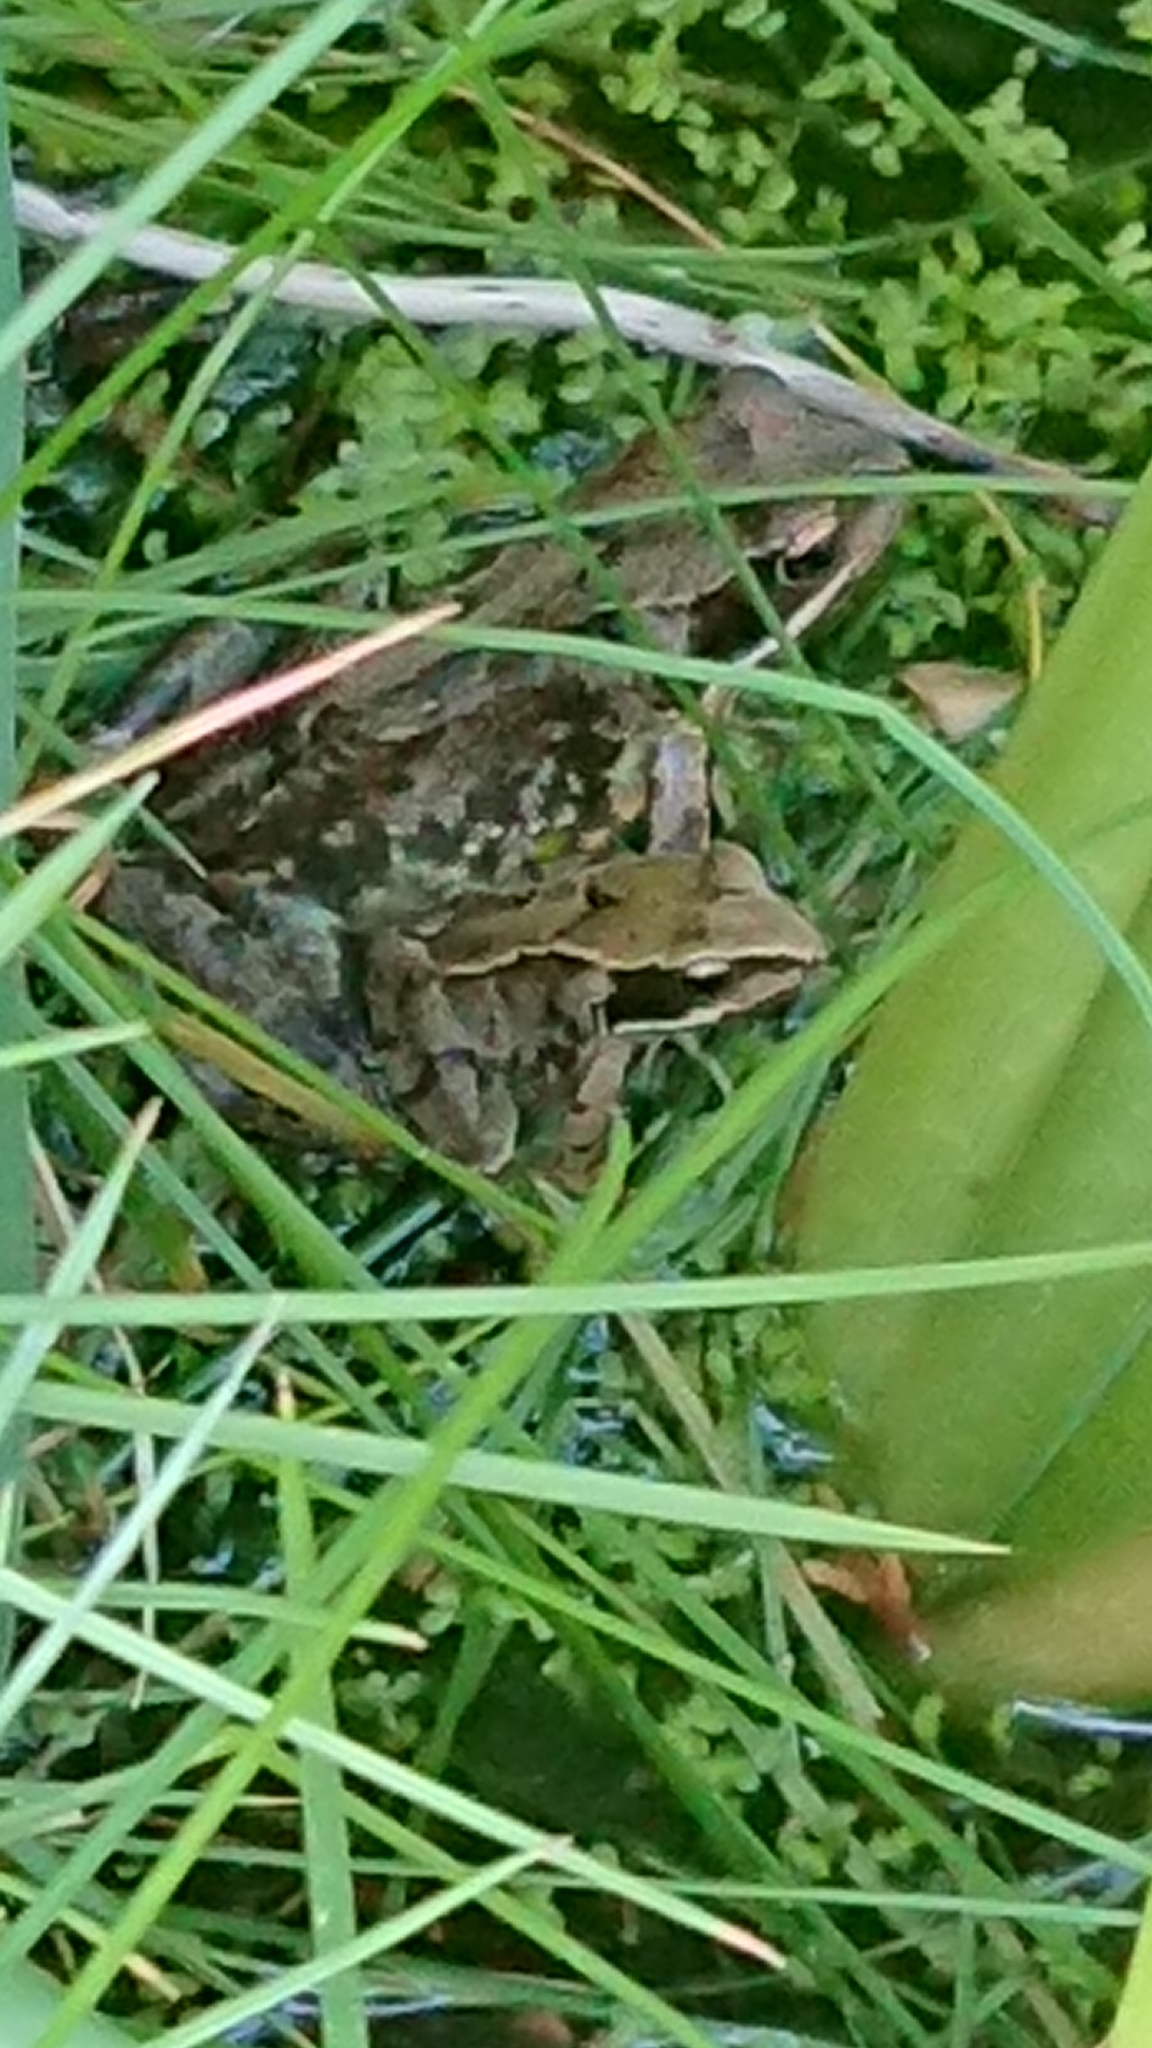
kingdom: Animalia
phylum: Chordata
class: Amphibia
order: Anura
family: Ranidae
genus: Rana
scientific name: Rana temporaria
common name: Common frog
